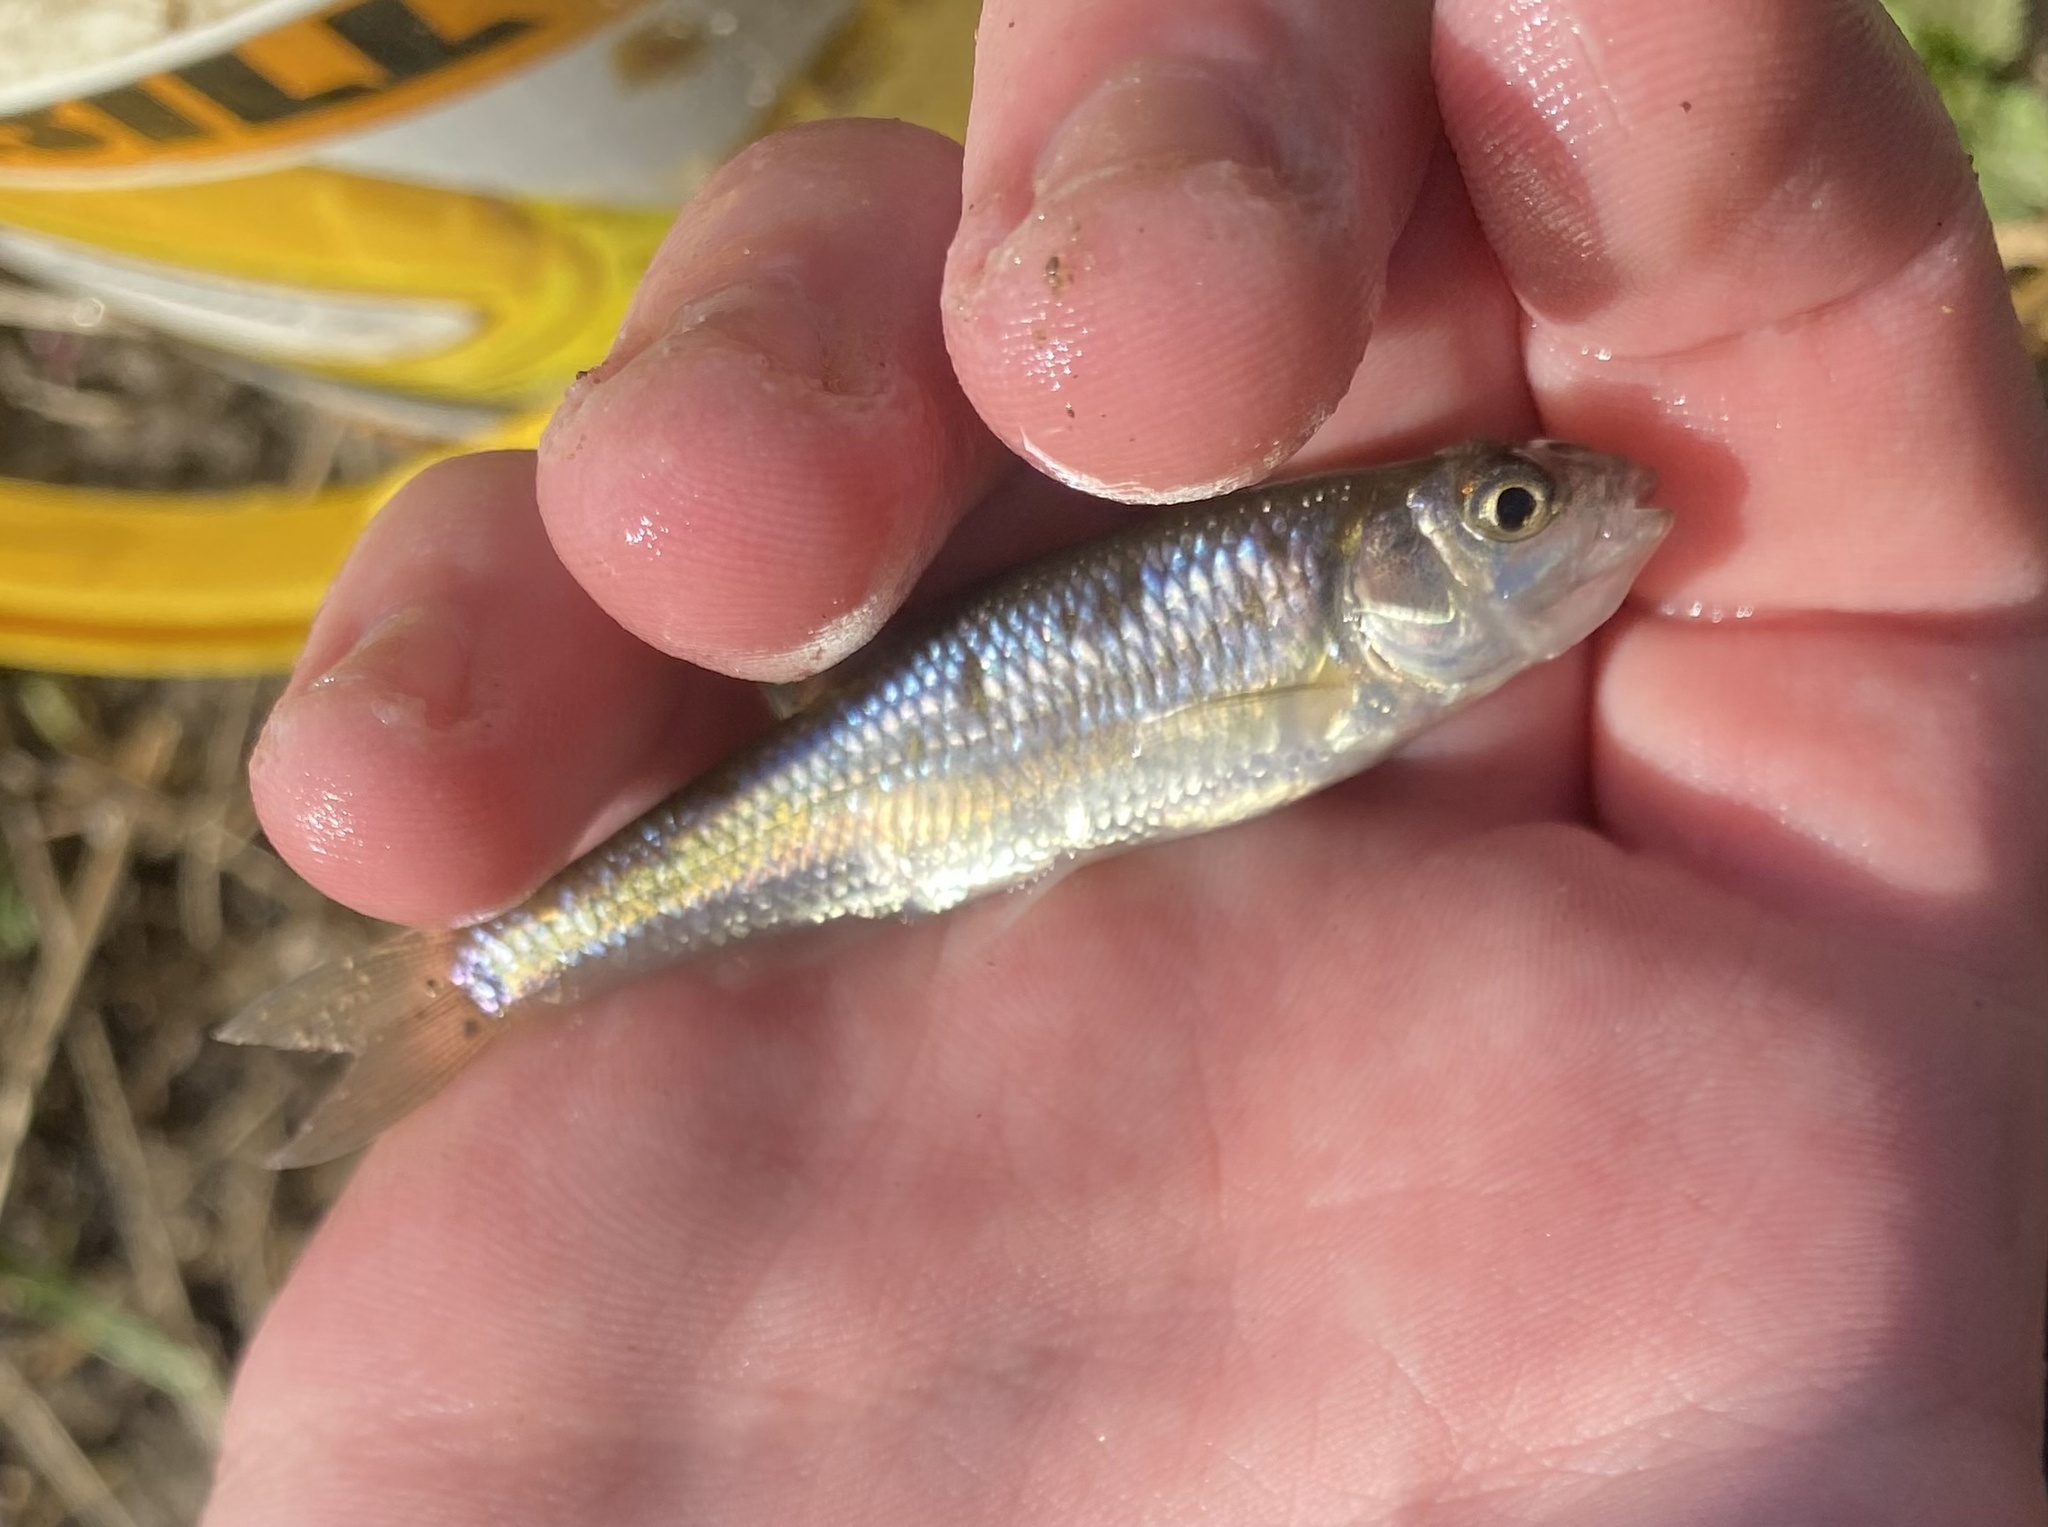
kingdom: Animalia
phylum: Chordata
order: Cypriniformes
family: Cyprinidae
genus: Luxilus
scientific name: Luxilus cornutus
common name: Common shiner
